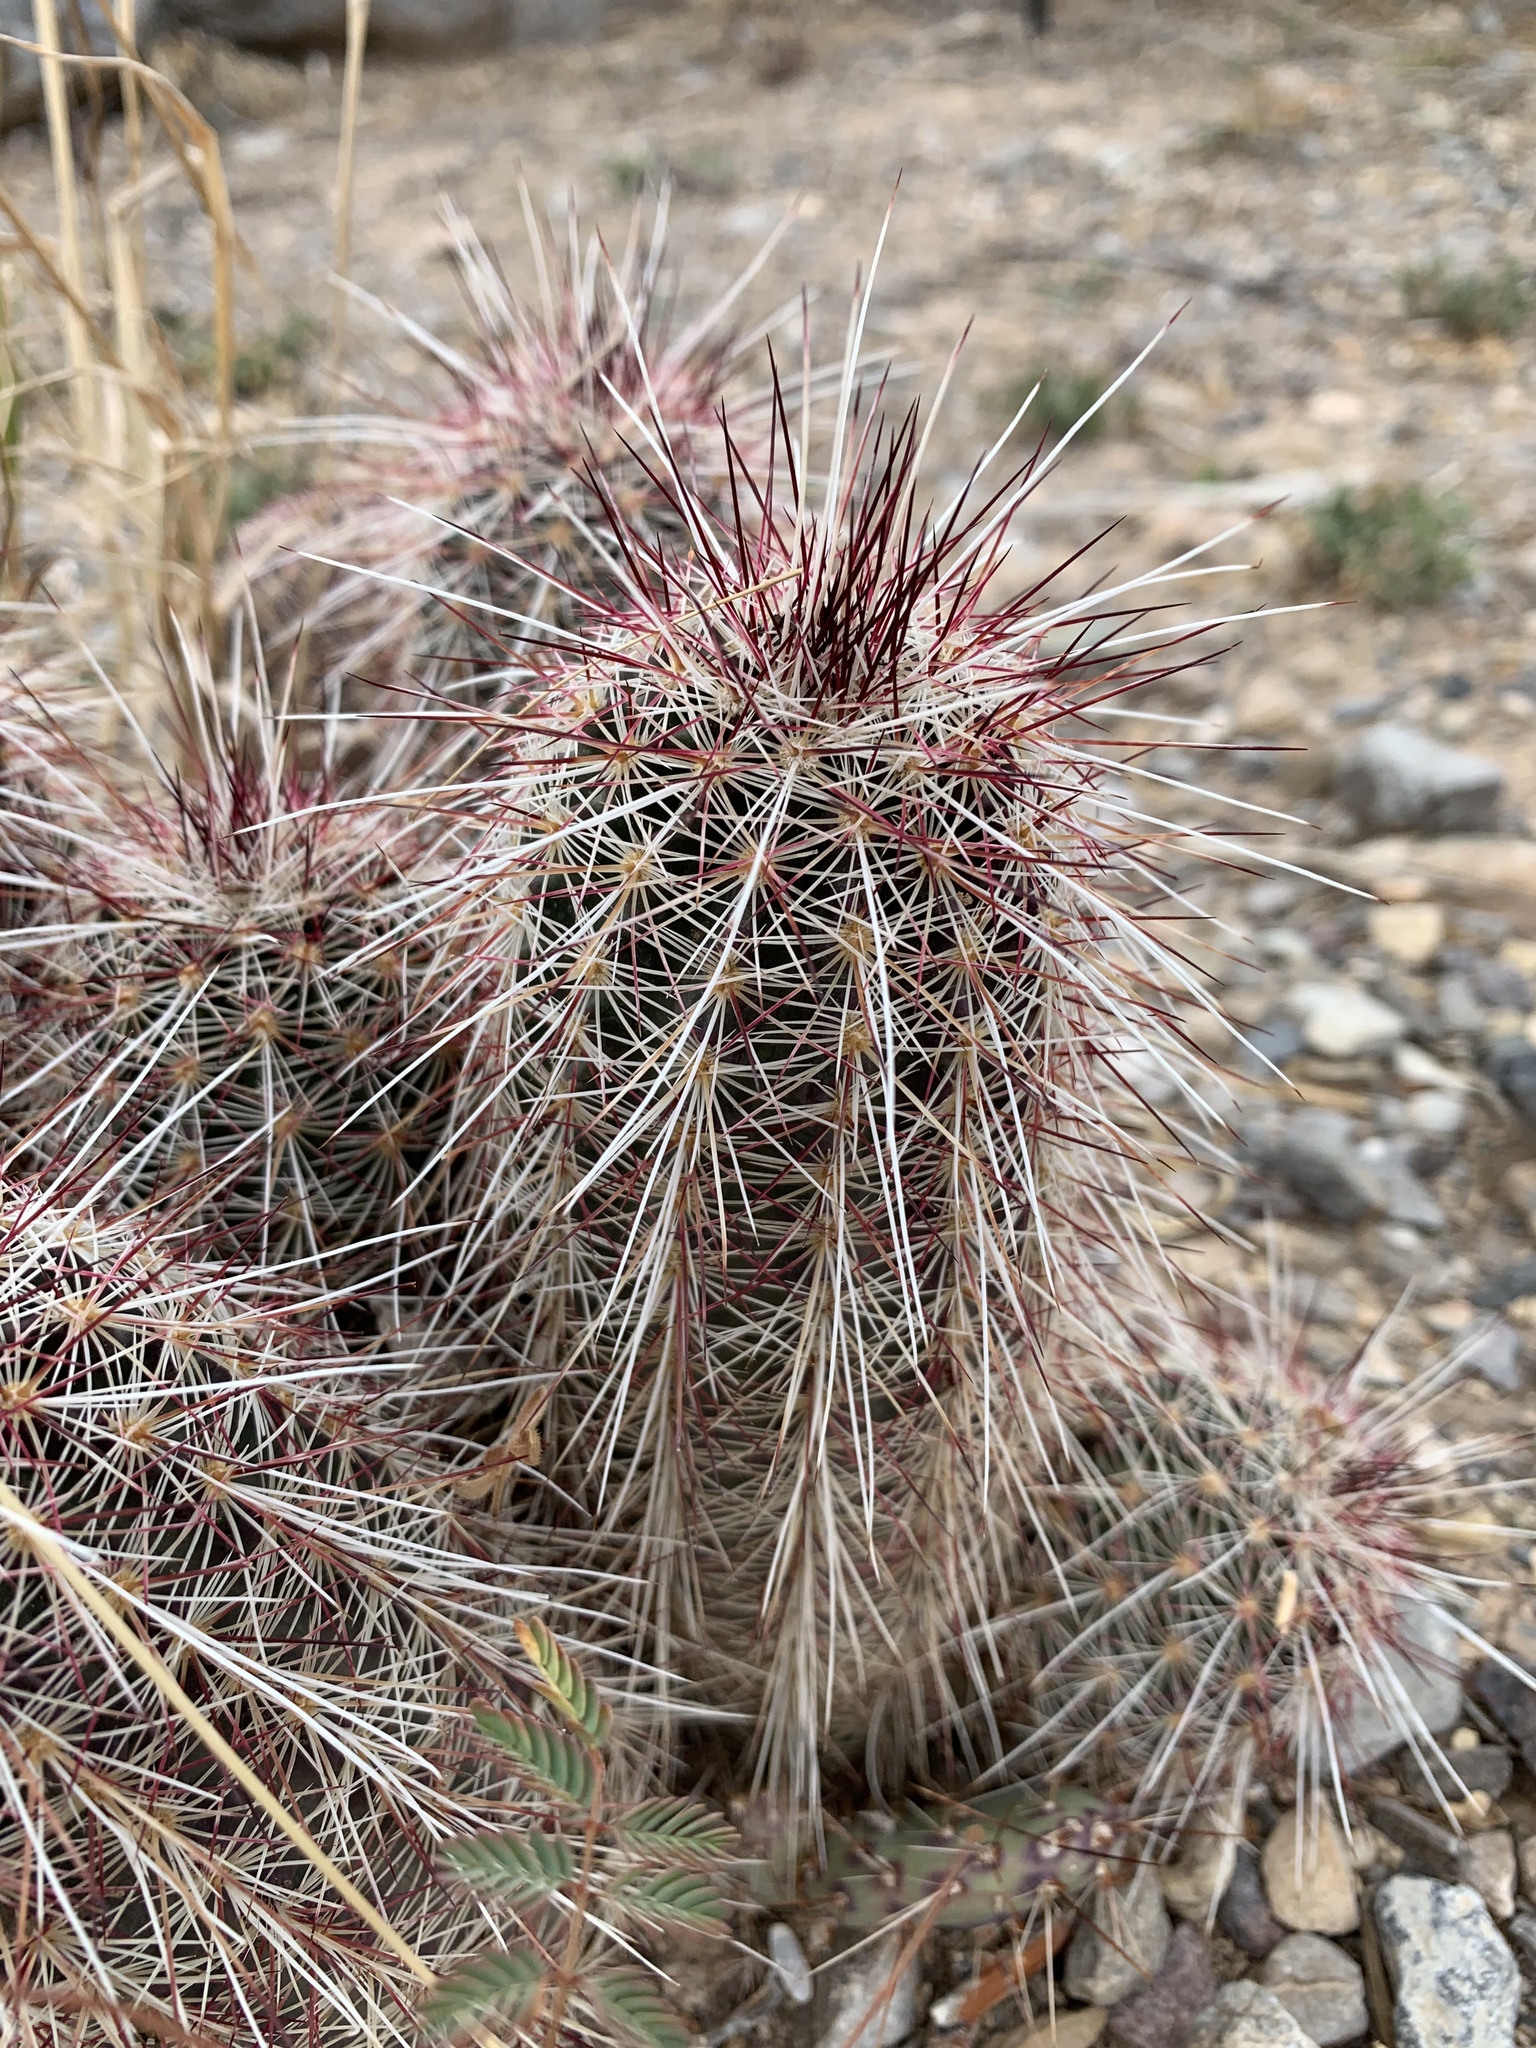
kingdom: Plantae
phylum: Tracheophyta
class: Magnoliopsida
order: Caryophyllales
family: Cactaceae
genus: Echinocereus
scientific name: Echinocereus viridiflorus
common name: Nylon hedgehog cactus
